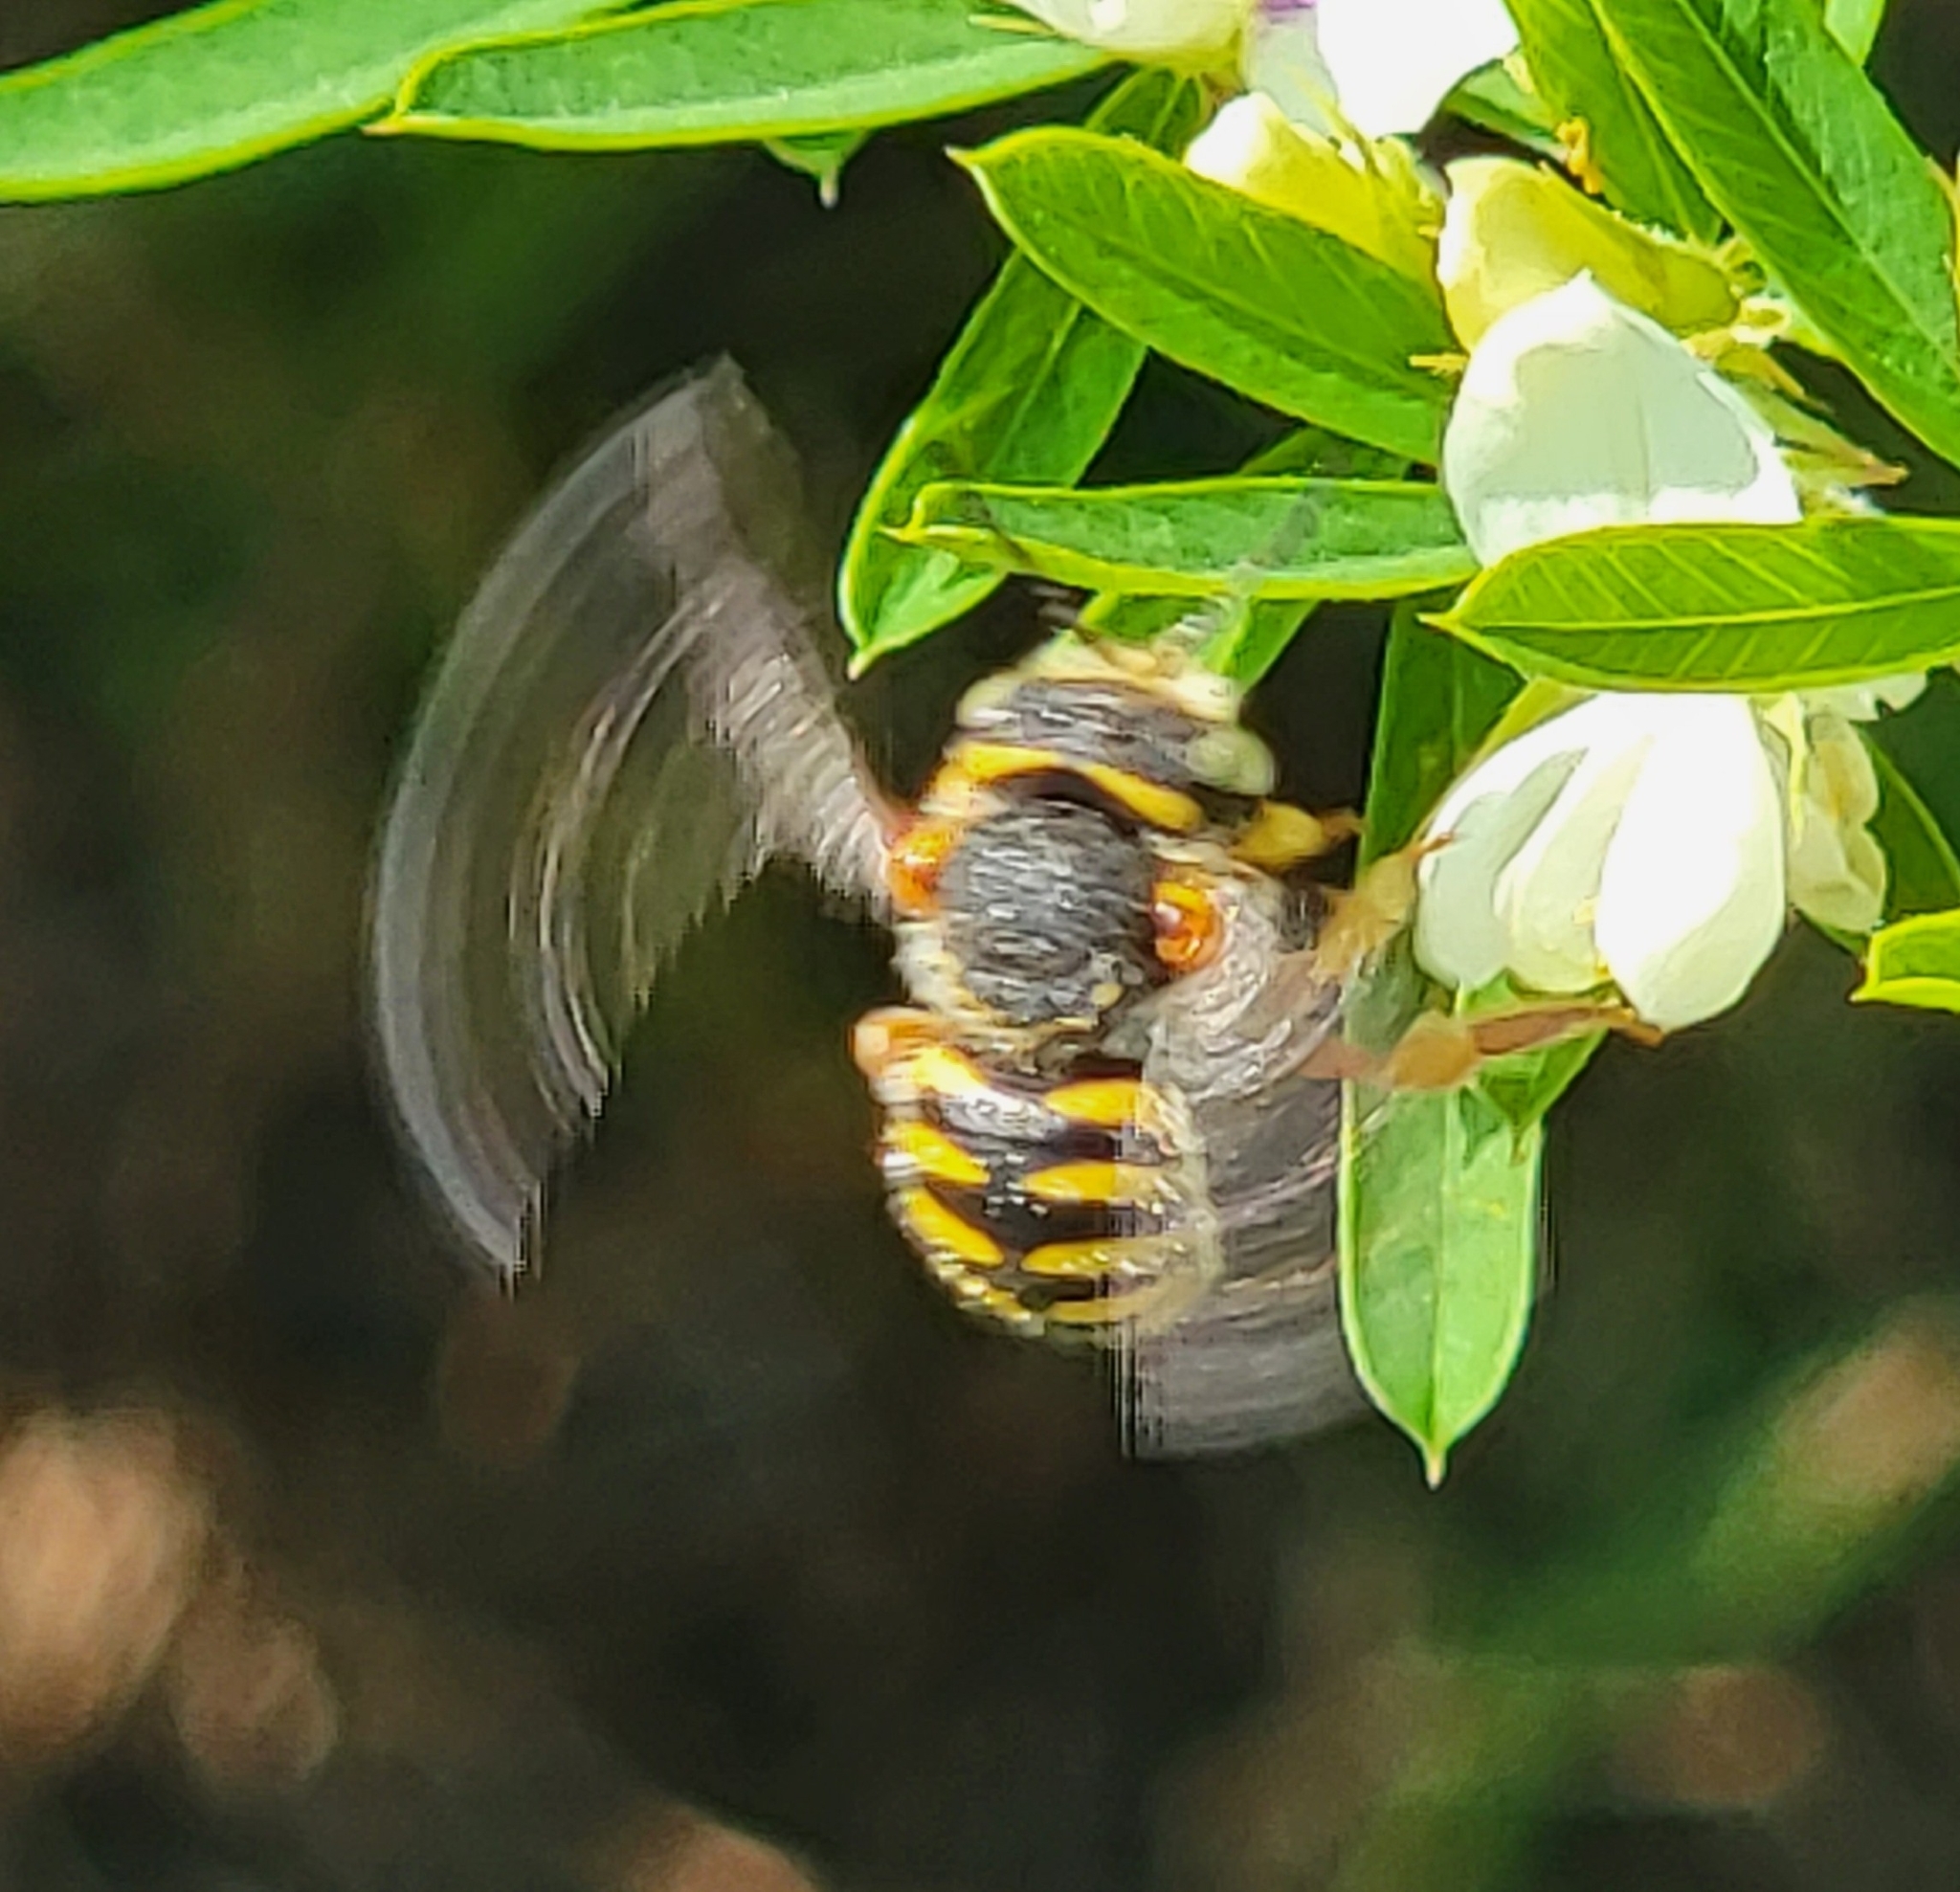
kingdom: Animalia
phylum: Arthropoda
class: Insecta
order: Hymenoptera
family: Megachilidae
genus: Anthidium
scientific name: Anthidium manicatum
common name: Wool carder bee
